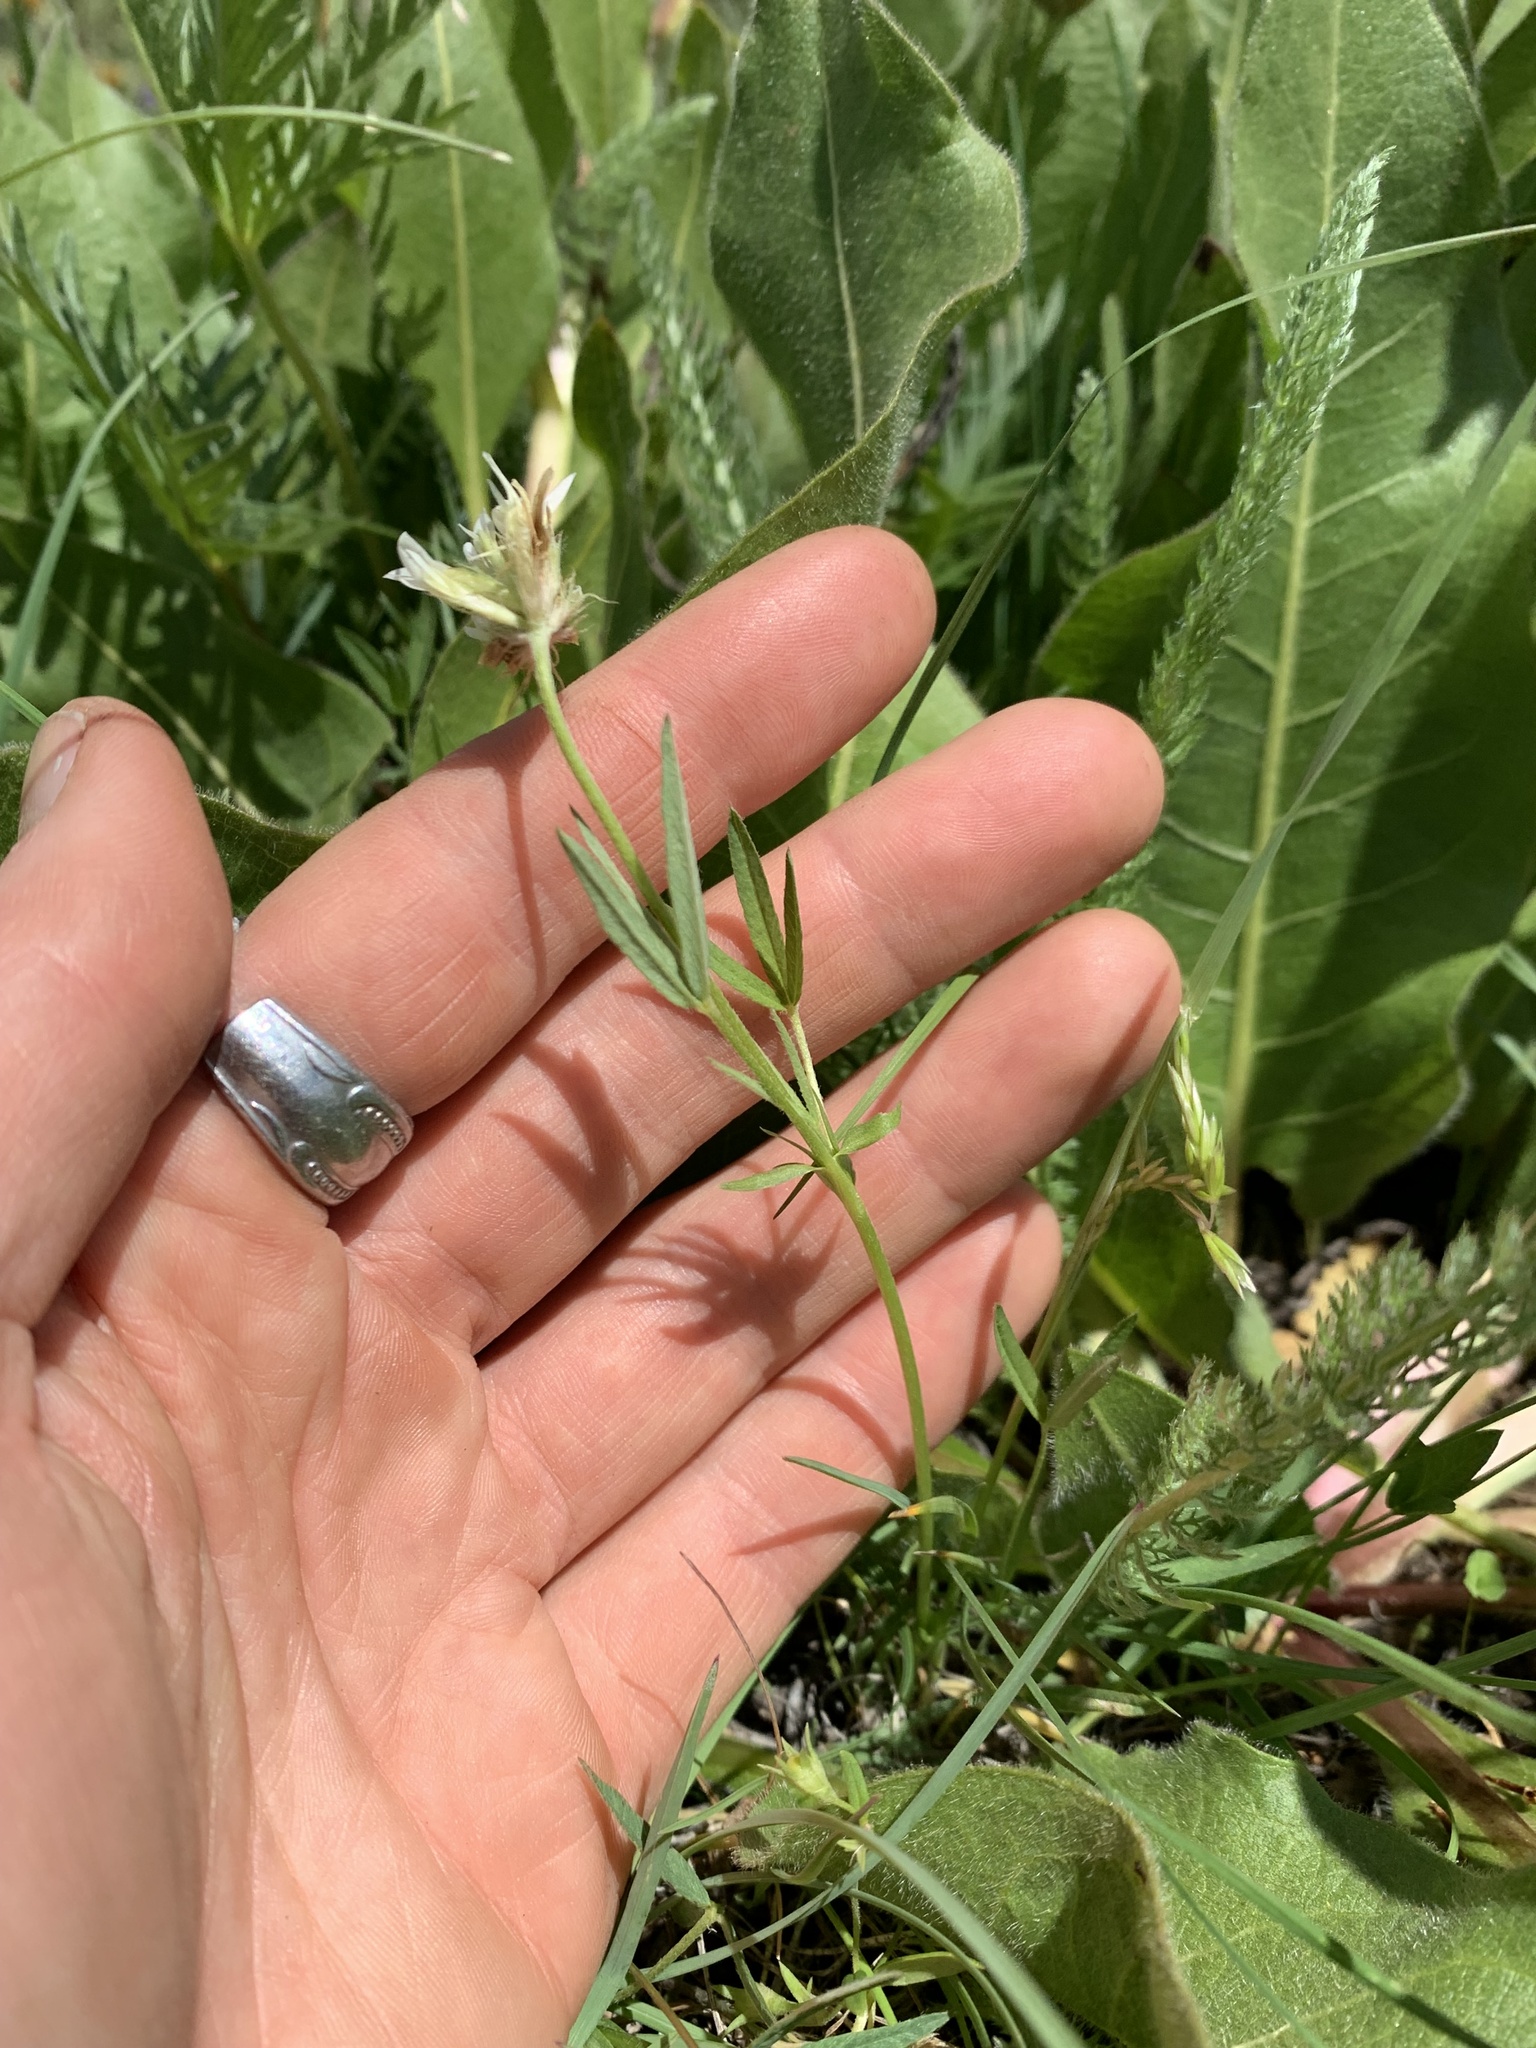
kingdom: Plantae
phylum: Tracheophyta
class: Magnoliopsida
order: Fabales
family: Fabaceae
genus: Trifolium
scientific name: Trifolium longipes
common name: Long-stalk clover
